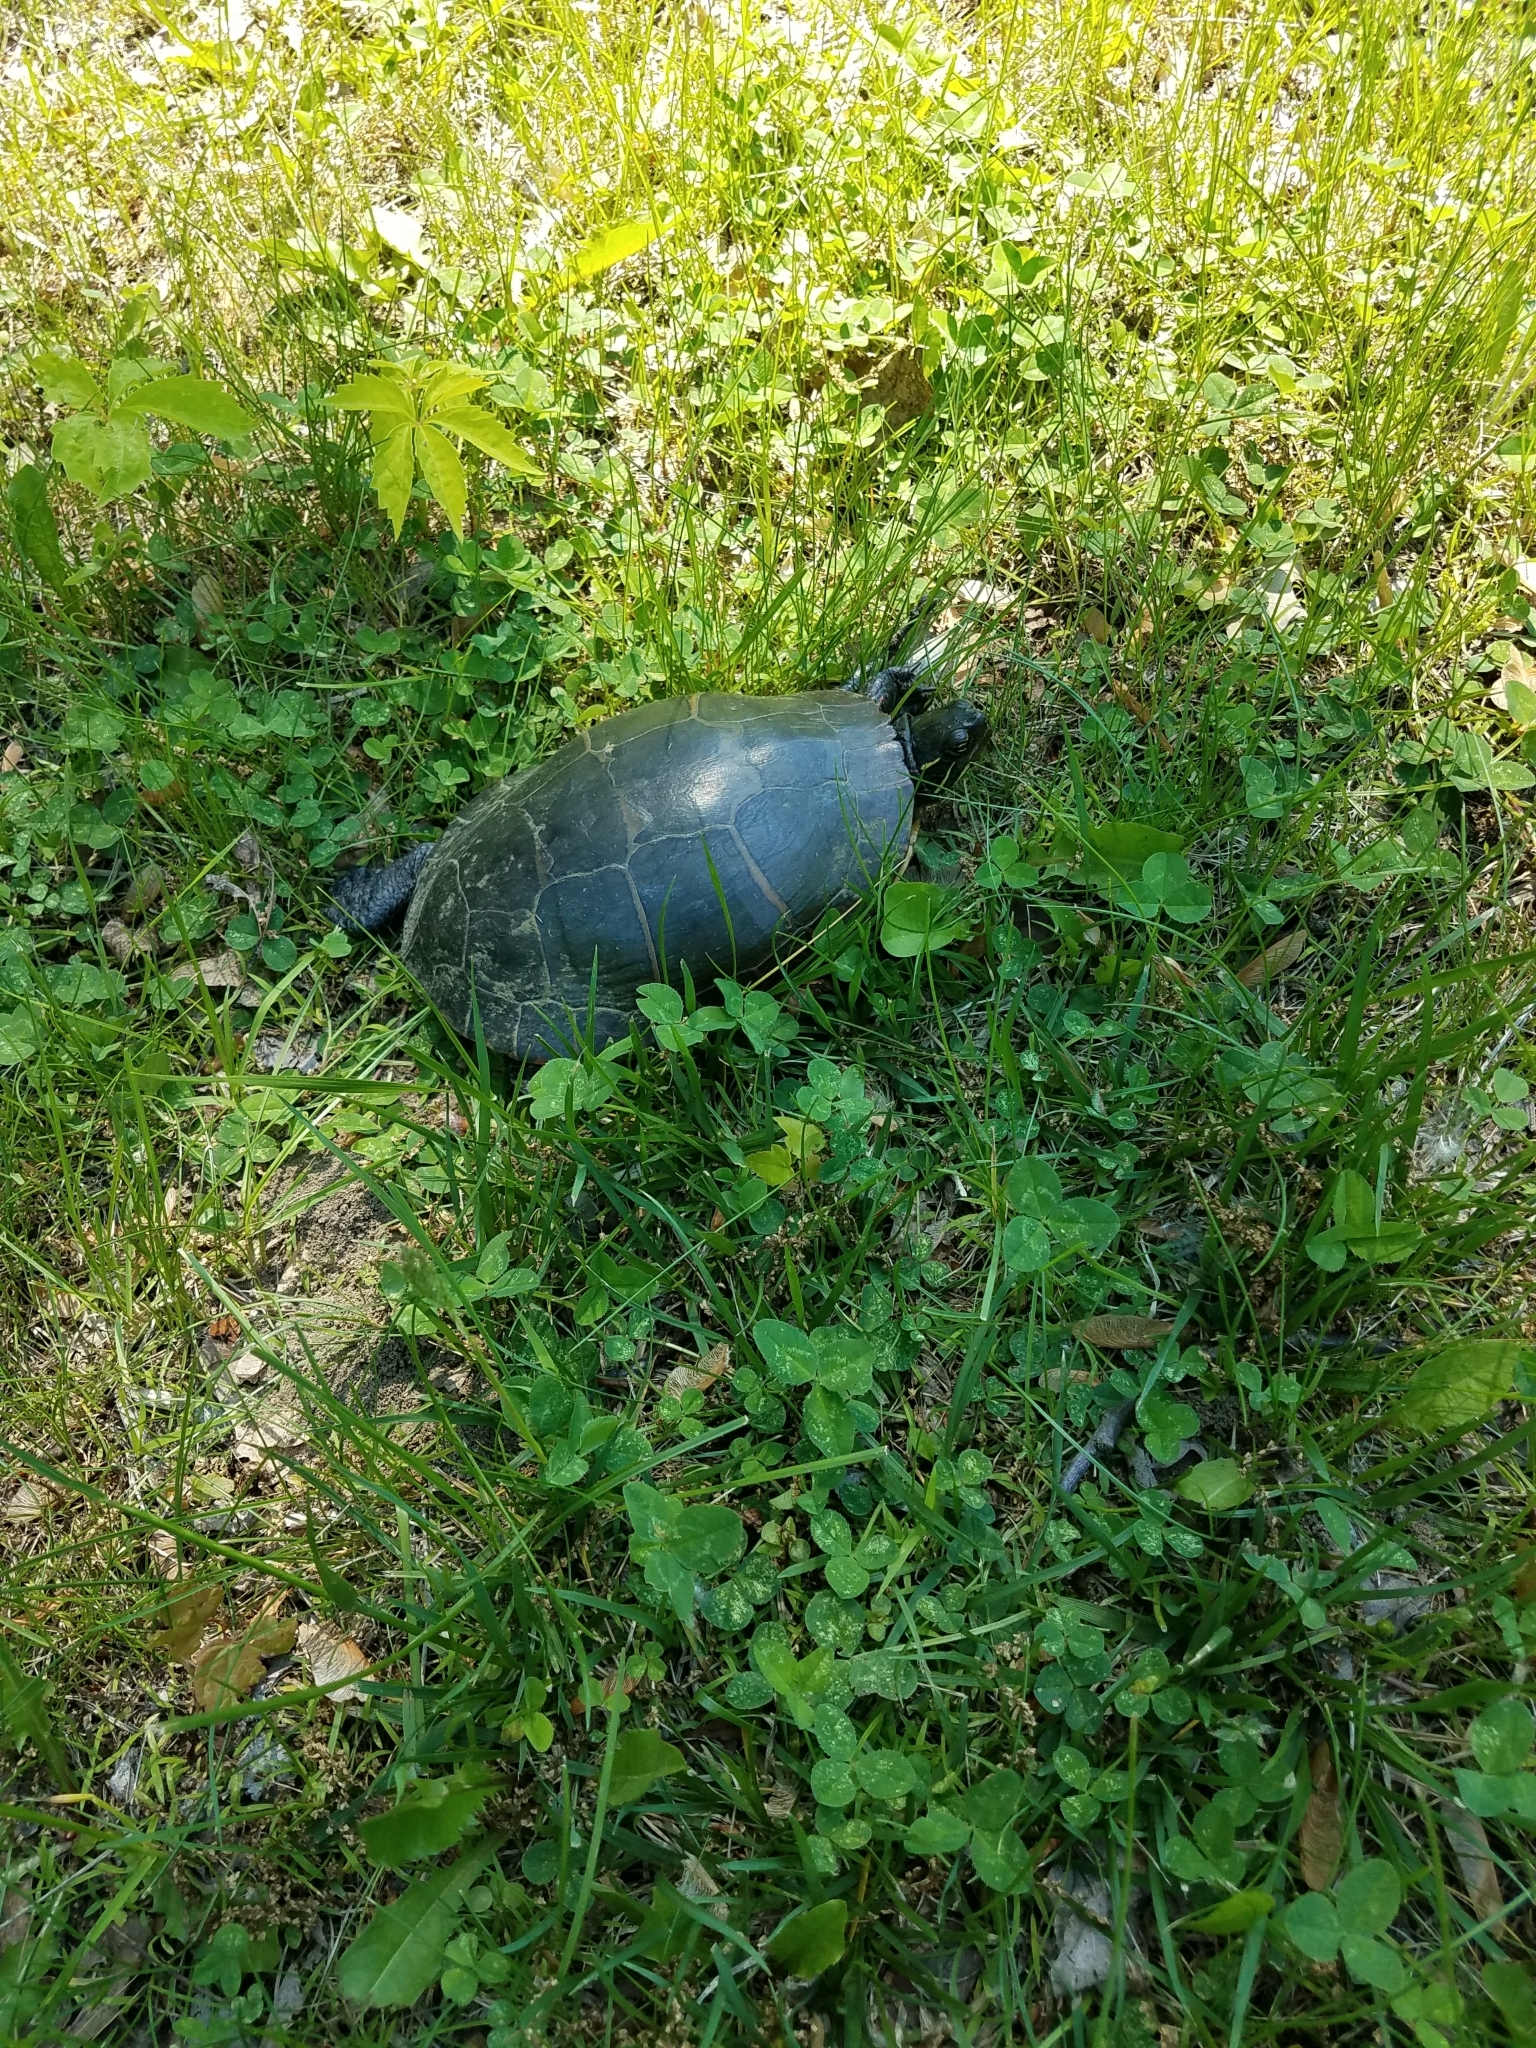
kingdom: Animalia
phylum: Chordata
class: Testudines
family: Emydidae
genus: Chrysemys
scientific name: Chrysemys picta
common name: Painted turtle
